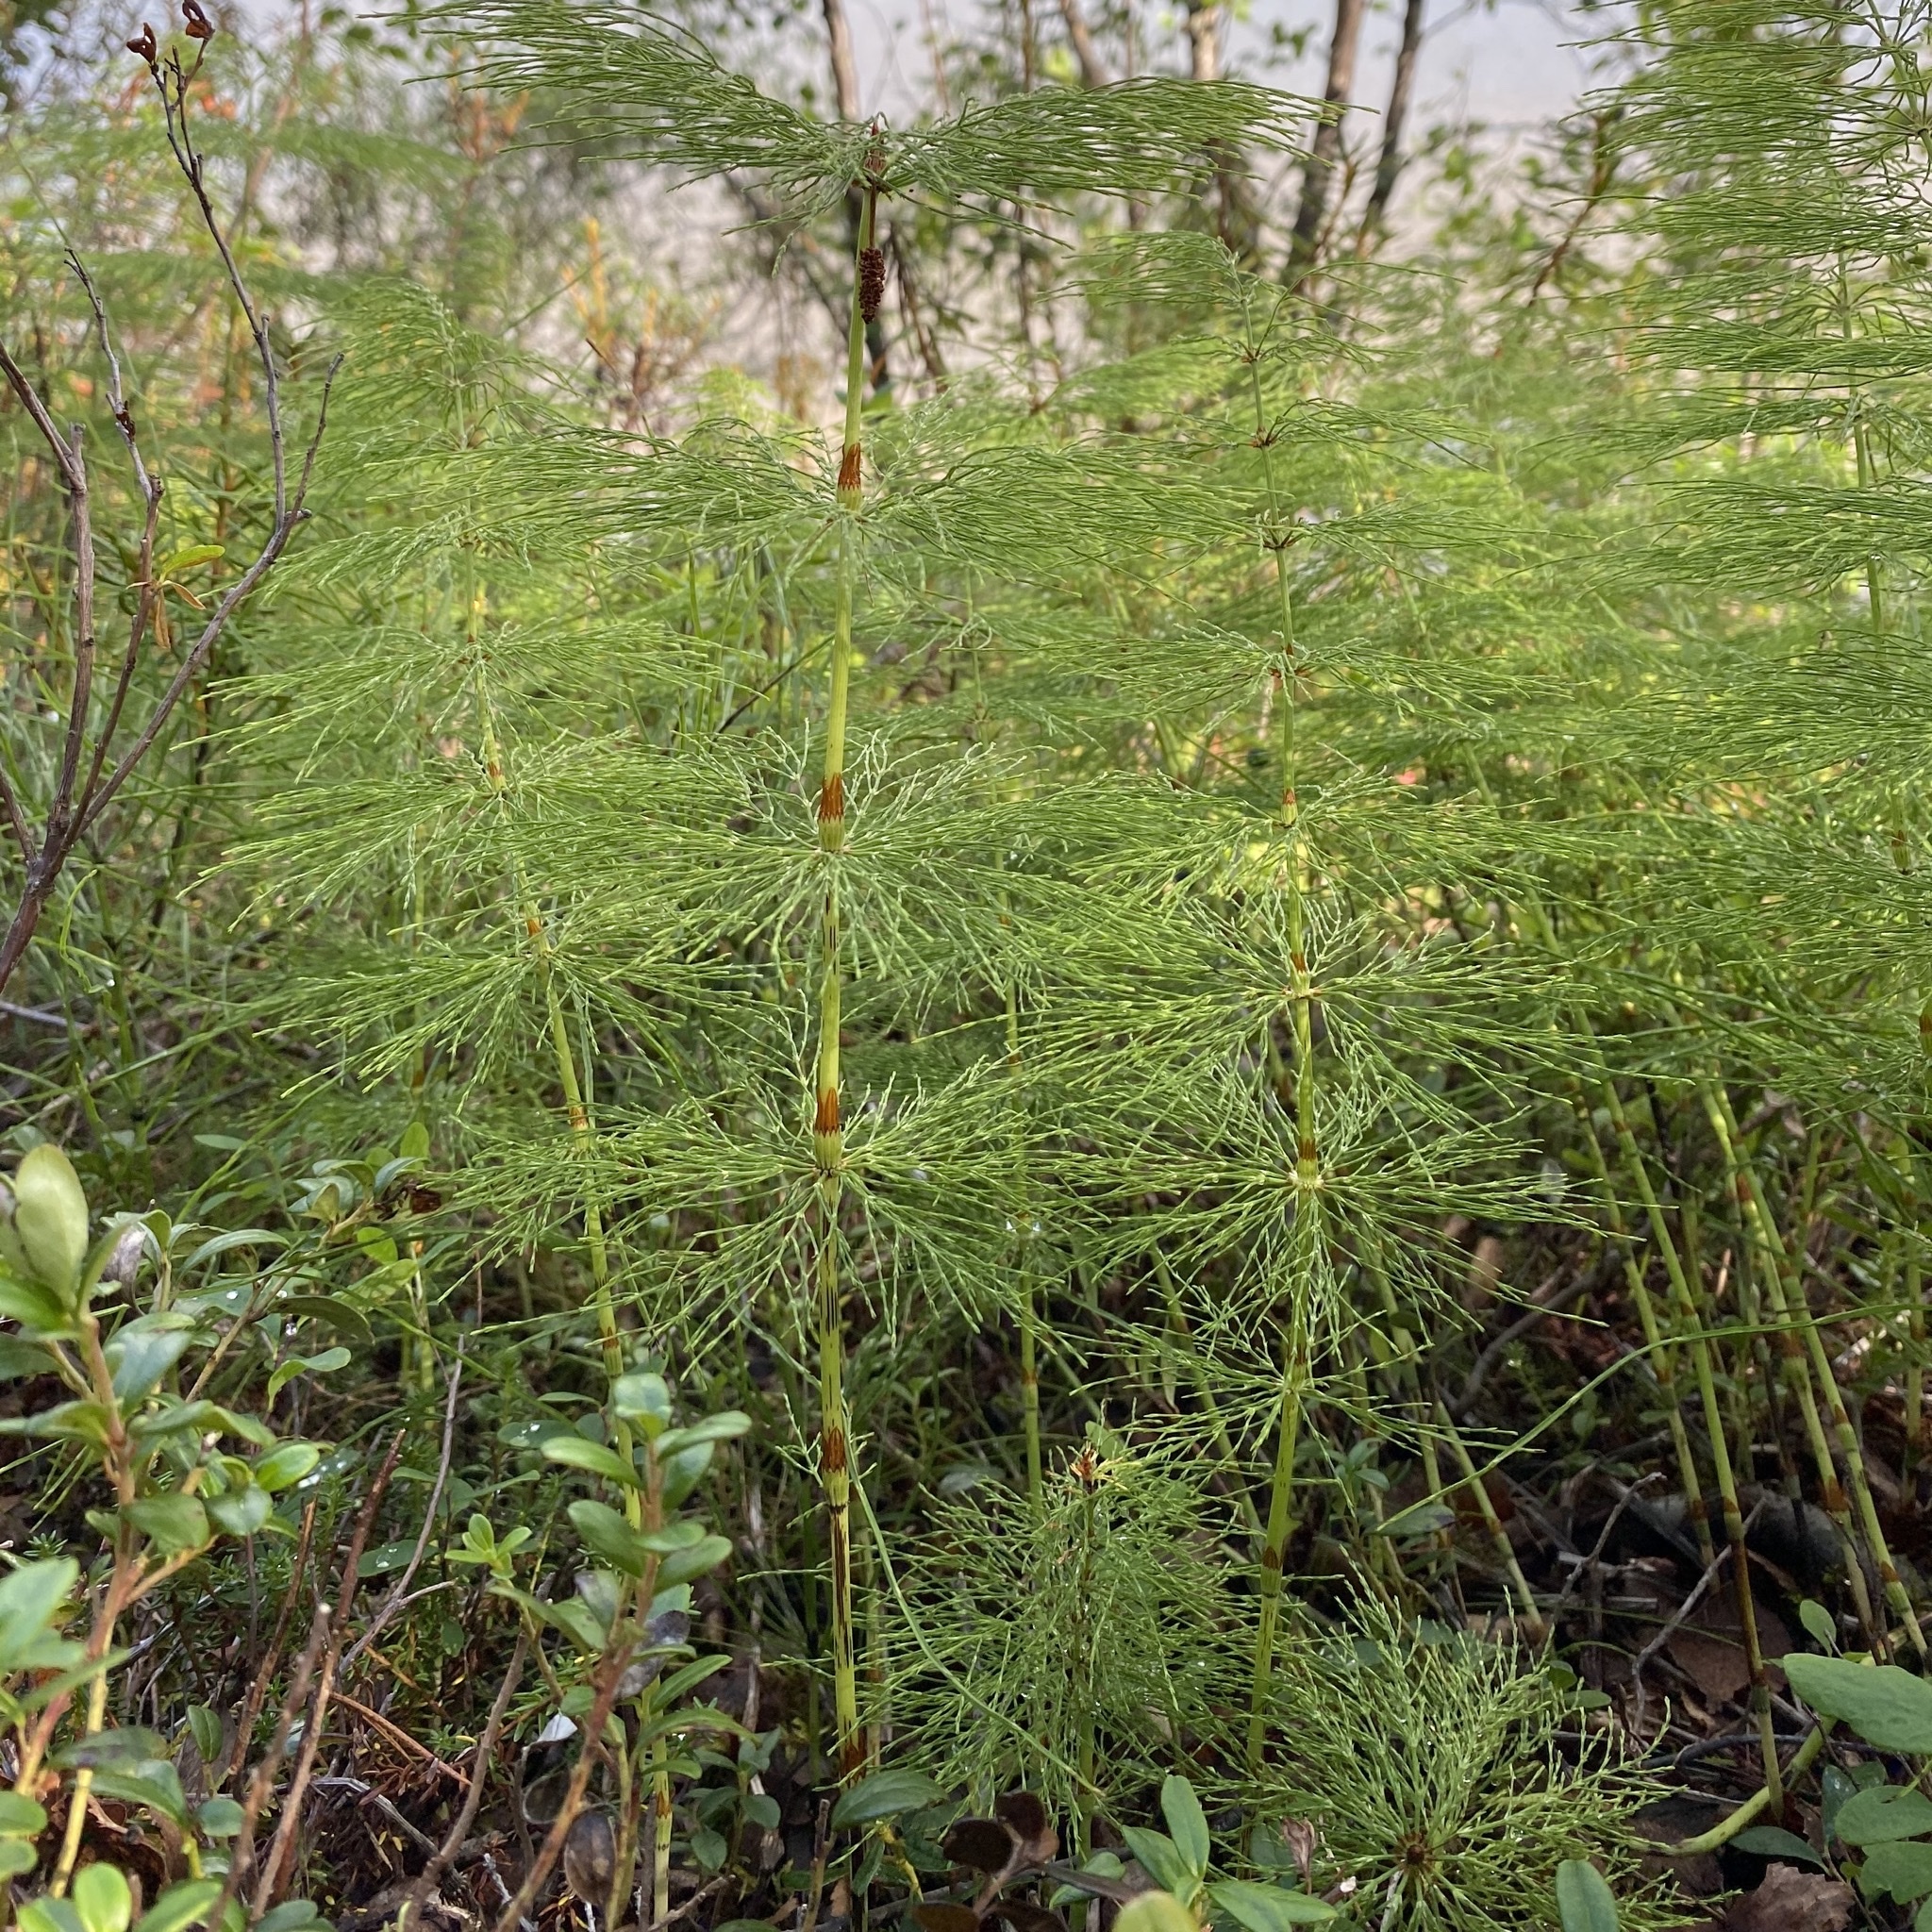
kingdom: Plantae
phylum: Tracheophyta
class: Polypodiopsida
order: Equisetales
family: Equisetaceae
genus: Equisetum
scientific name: Equisetum sylvaticum
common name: Wood horsetail
